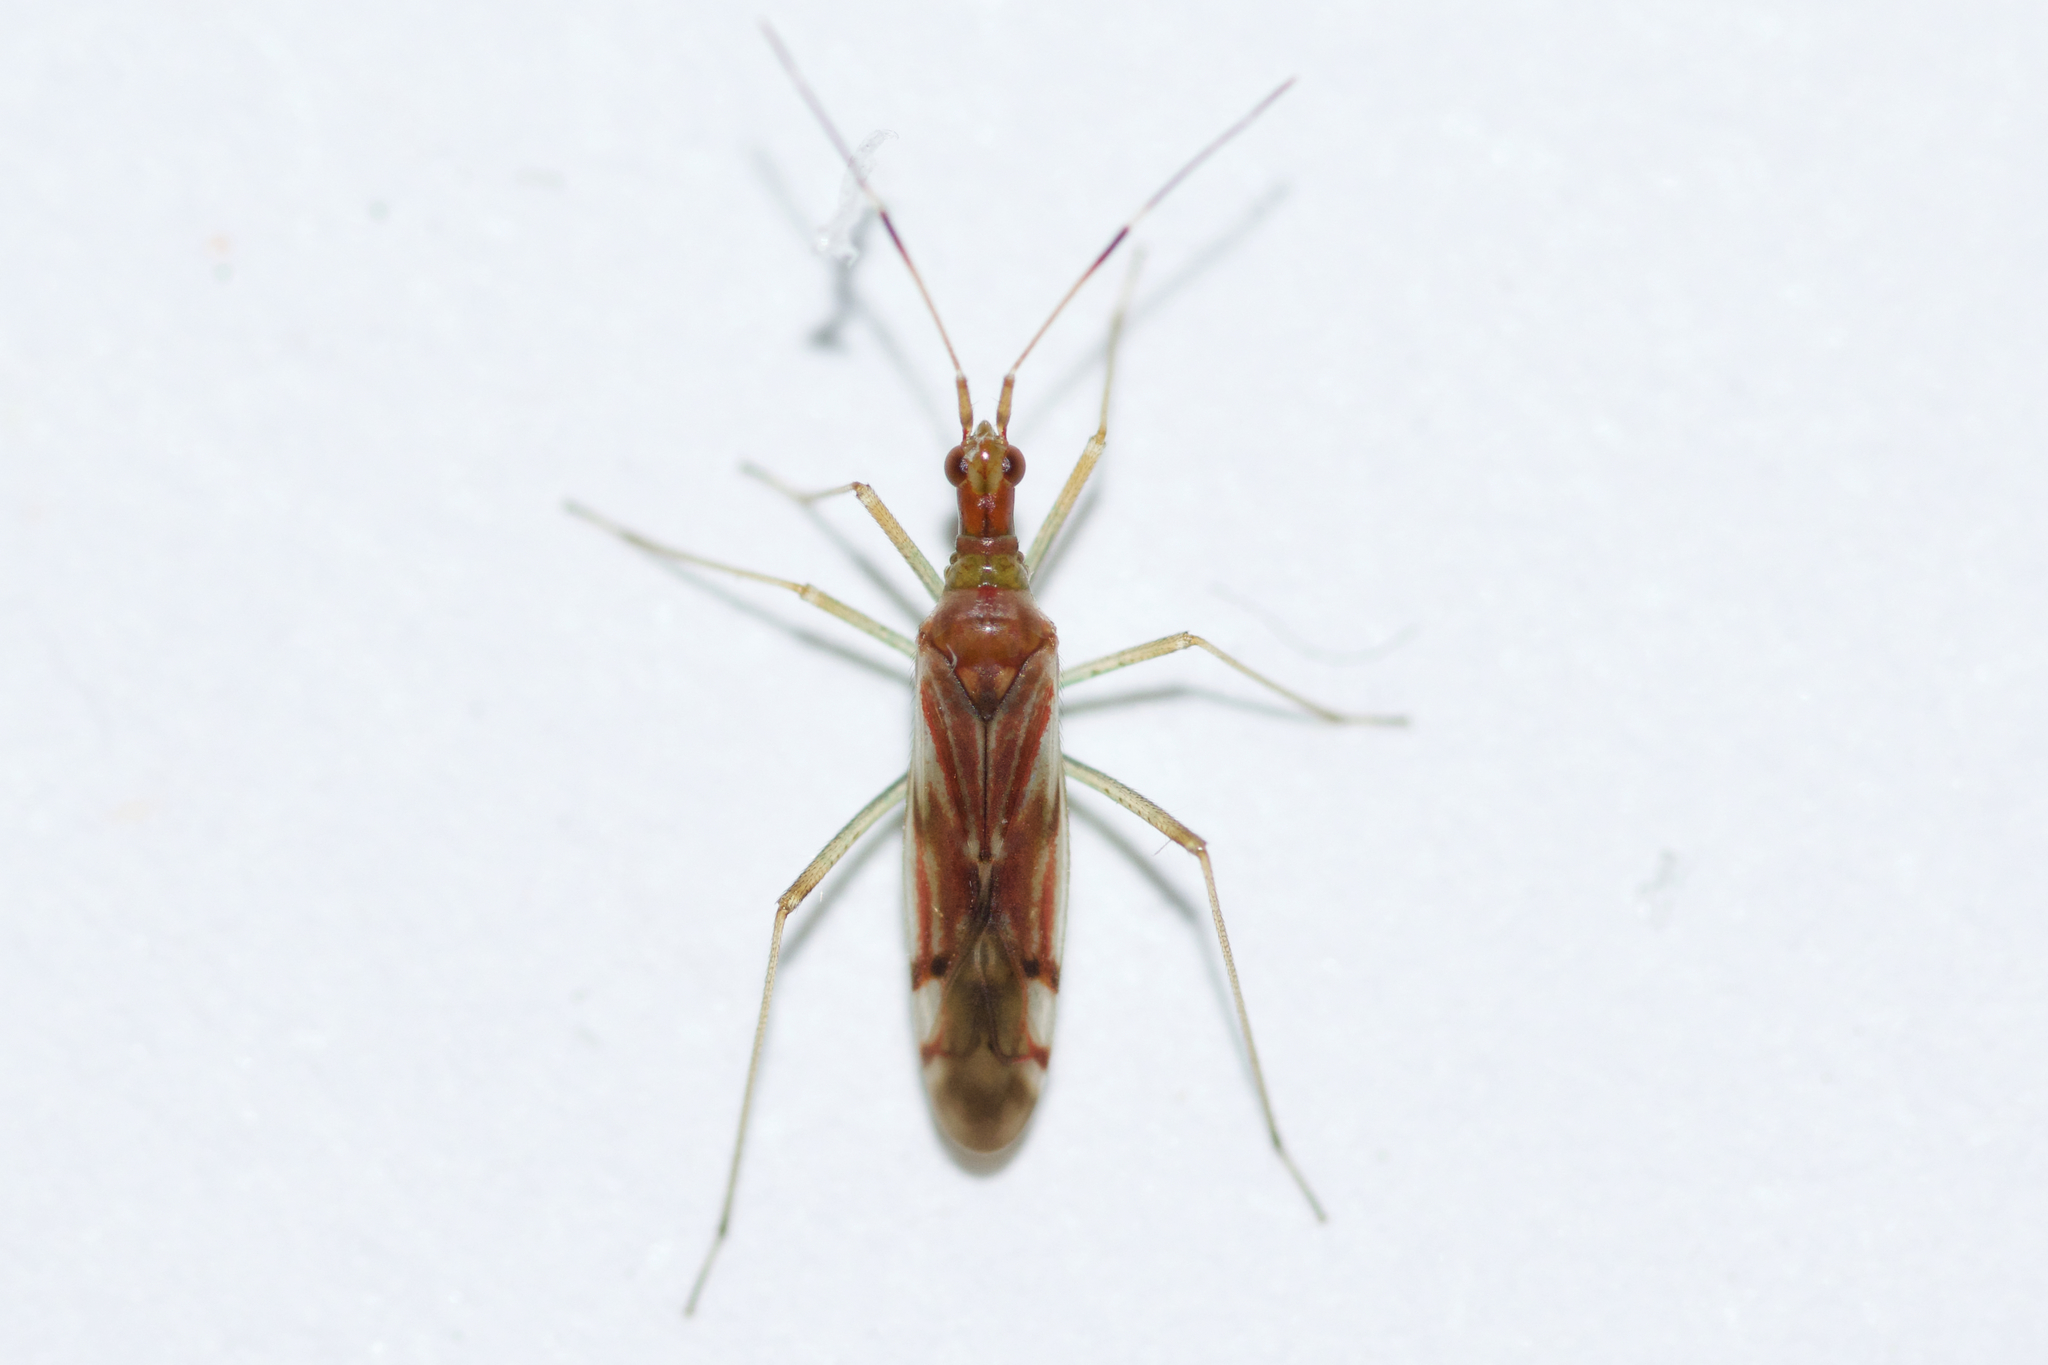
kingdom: Animalia
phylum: Arthropoda
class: Insecta
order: Hemiptera
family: Miridae
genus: Dicyphus
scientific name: Dicyphus famelicus
